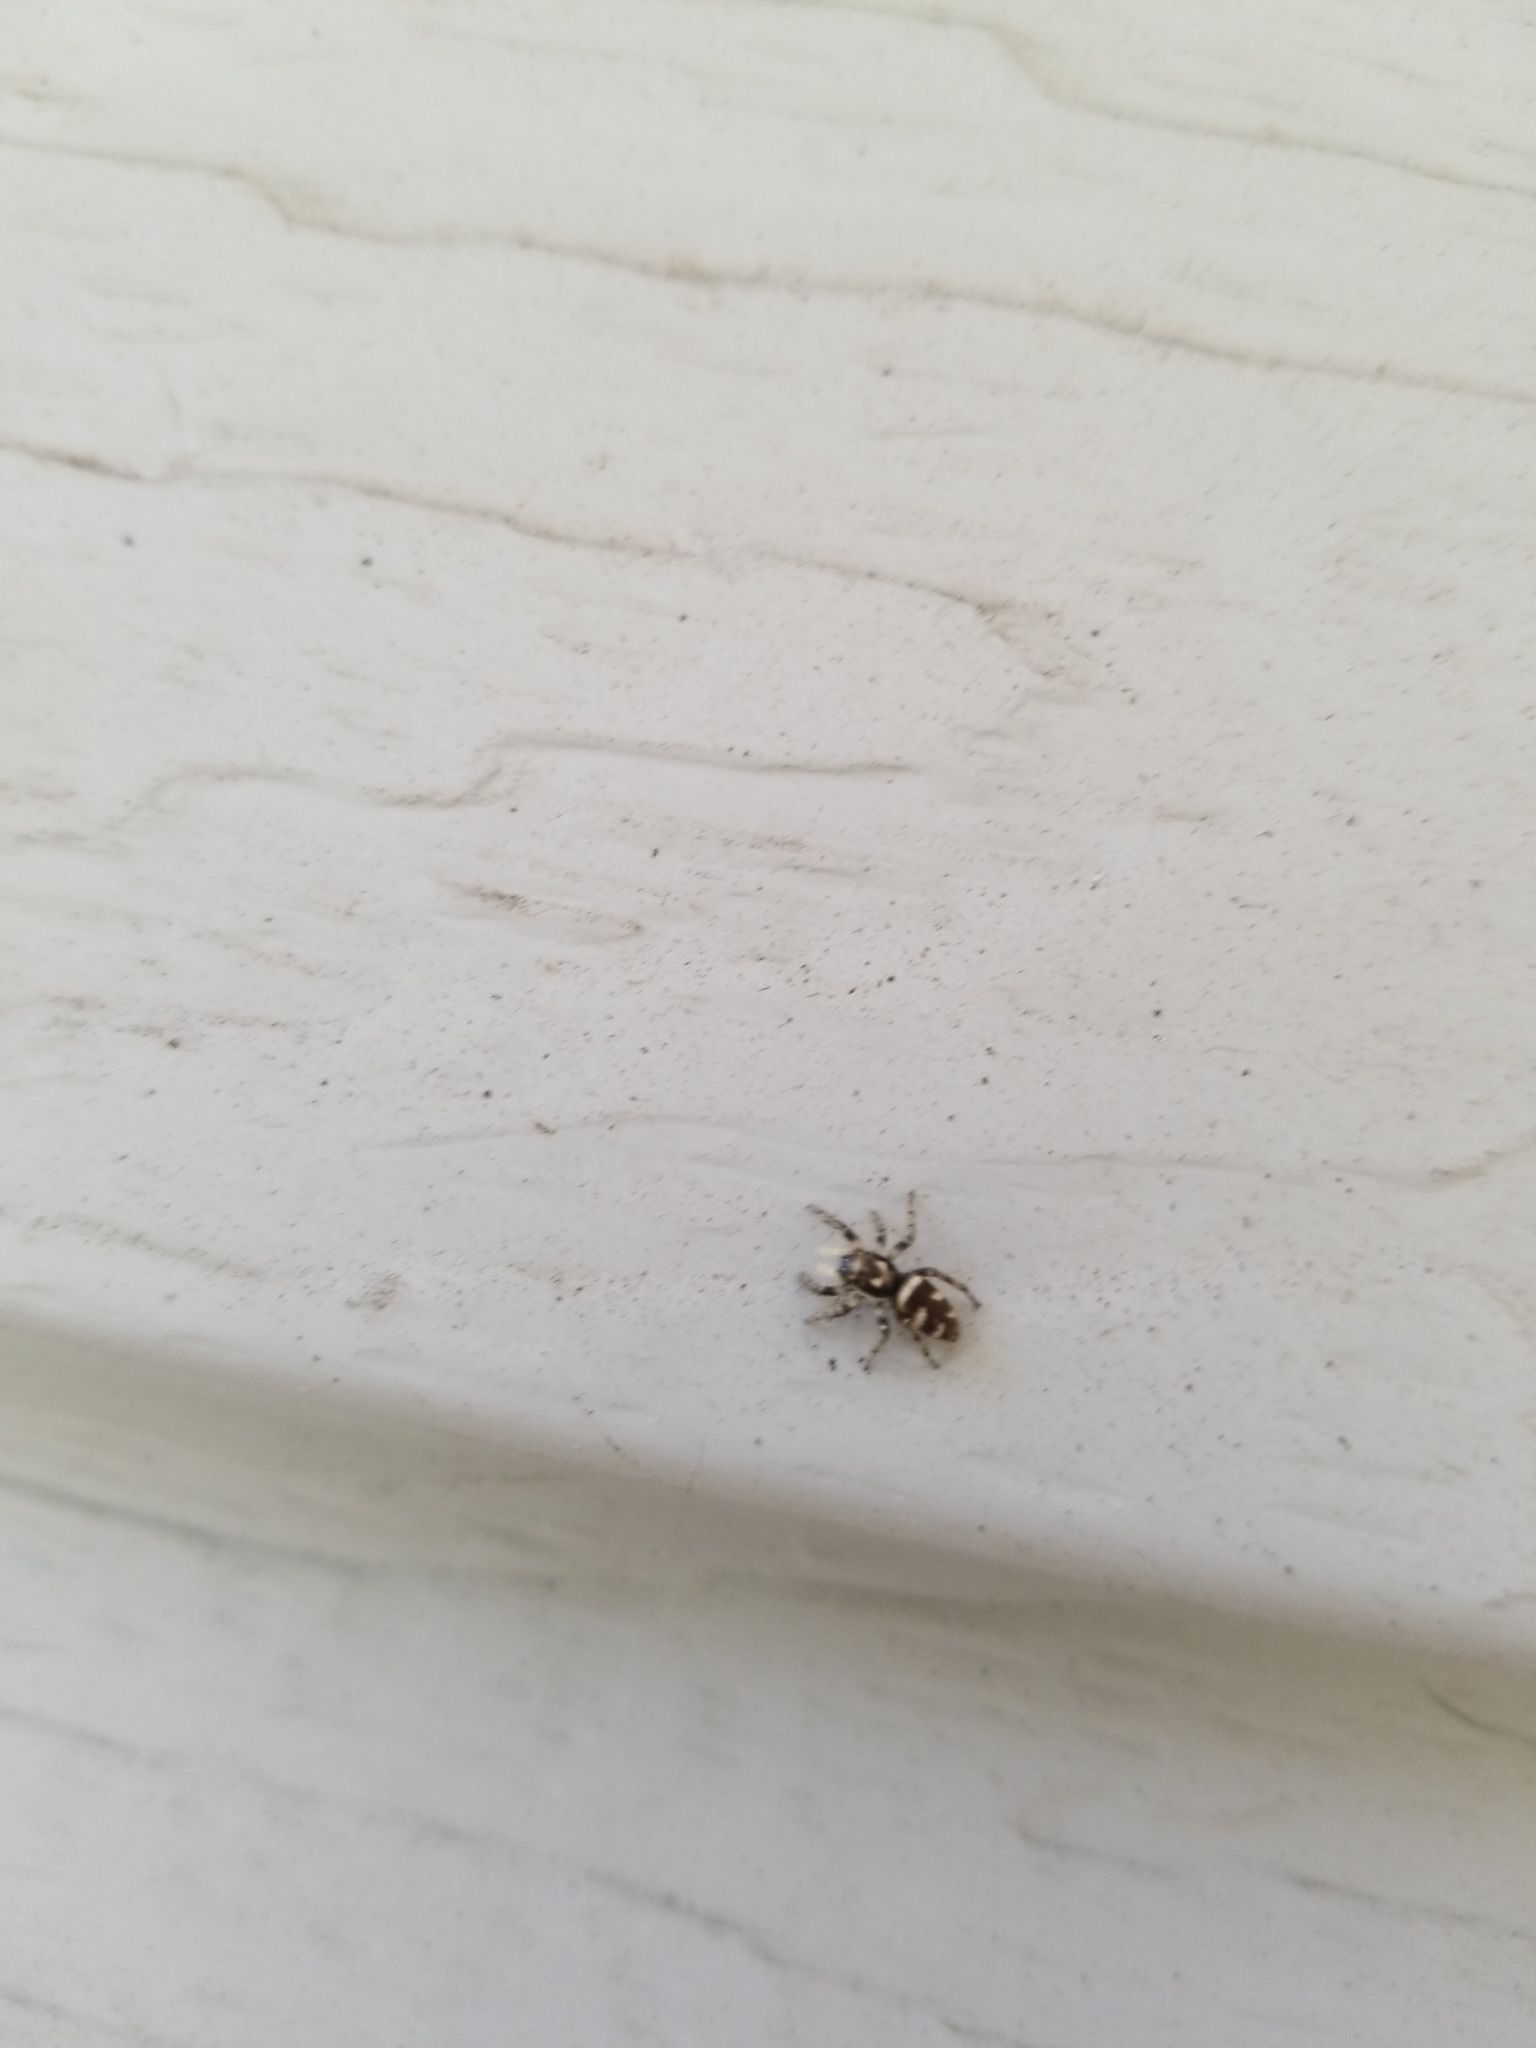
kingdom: Animalia
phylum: Arthropoda
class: Arachnida
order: Araneae
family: Salticidae
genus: Salticus
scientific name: Salticus scenicus
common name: Zebra jumper
